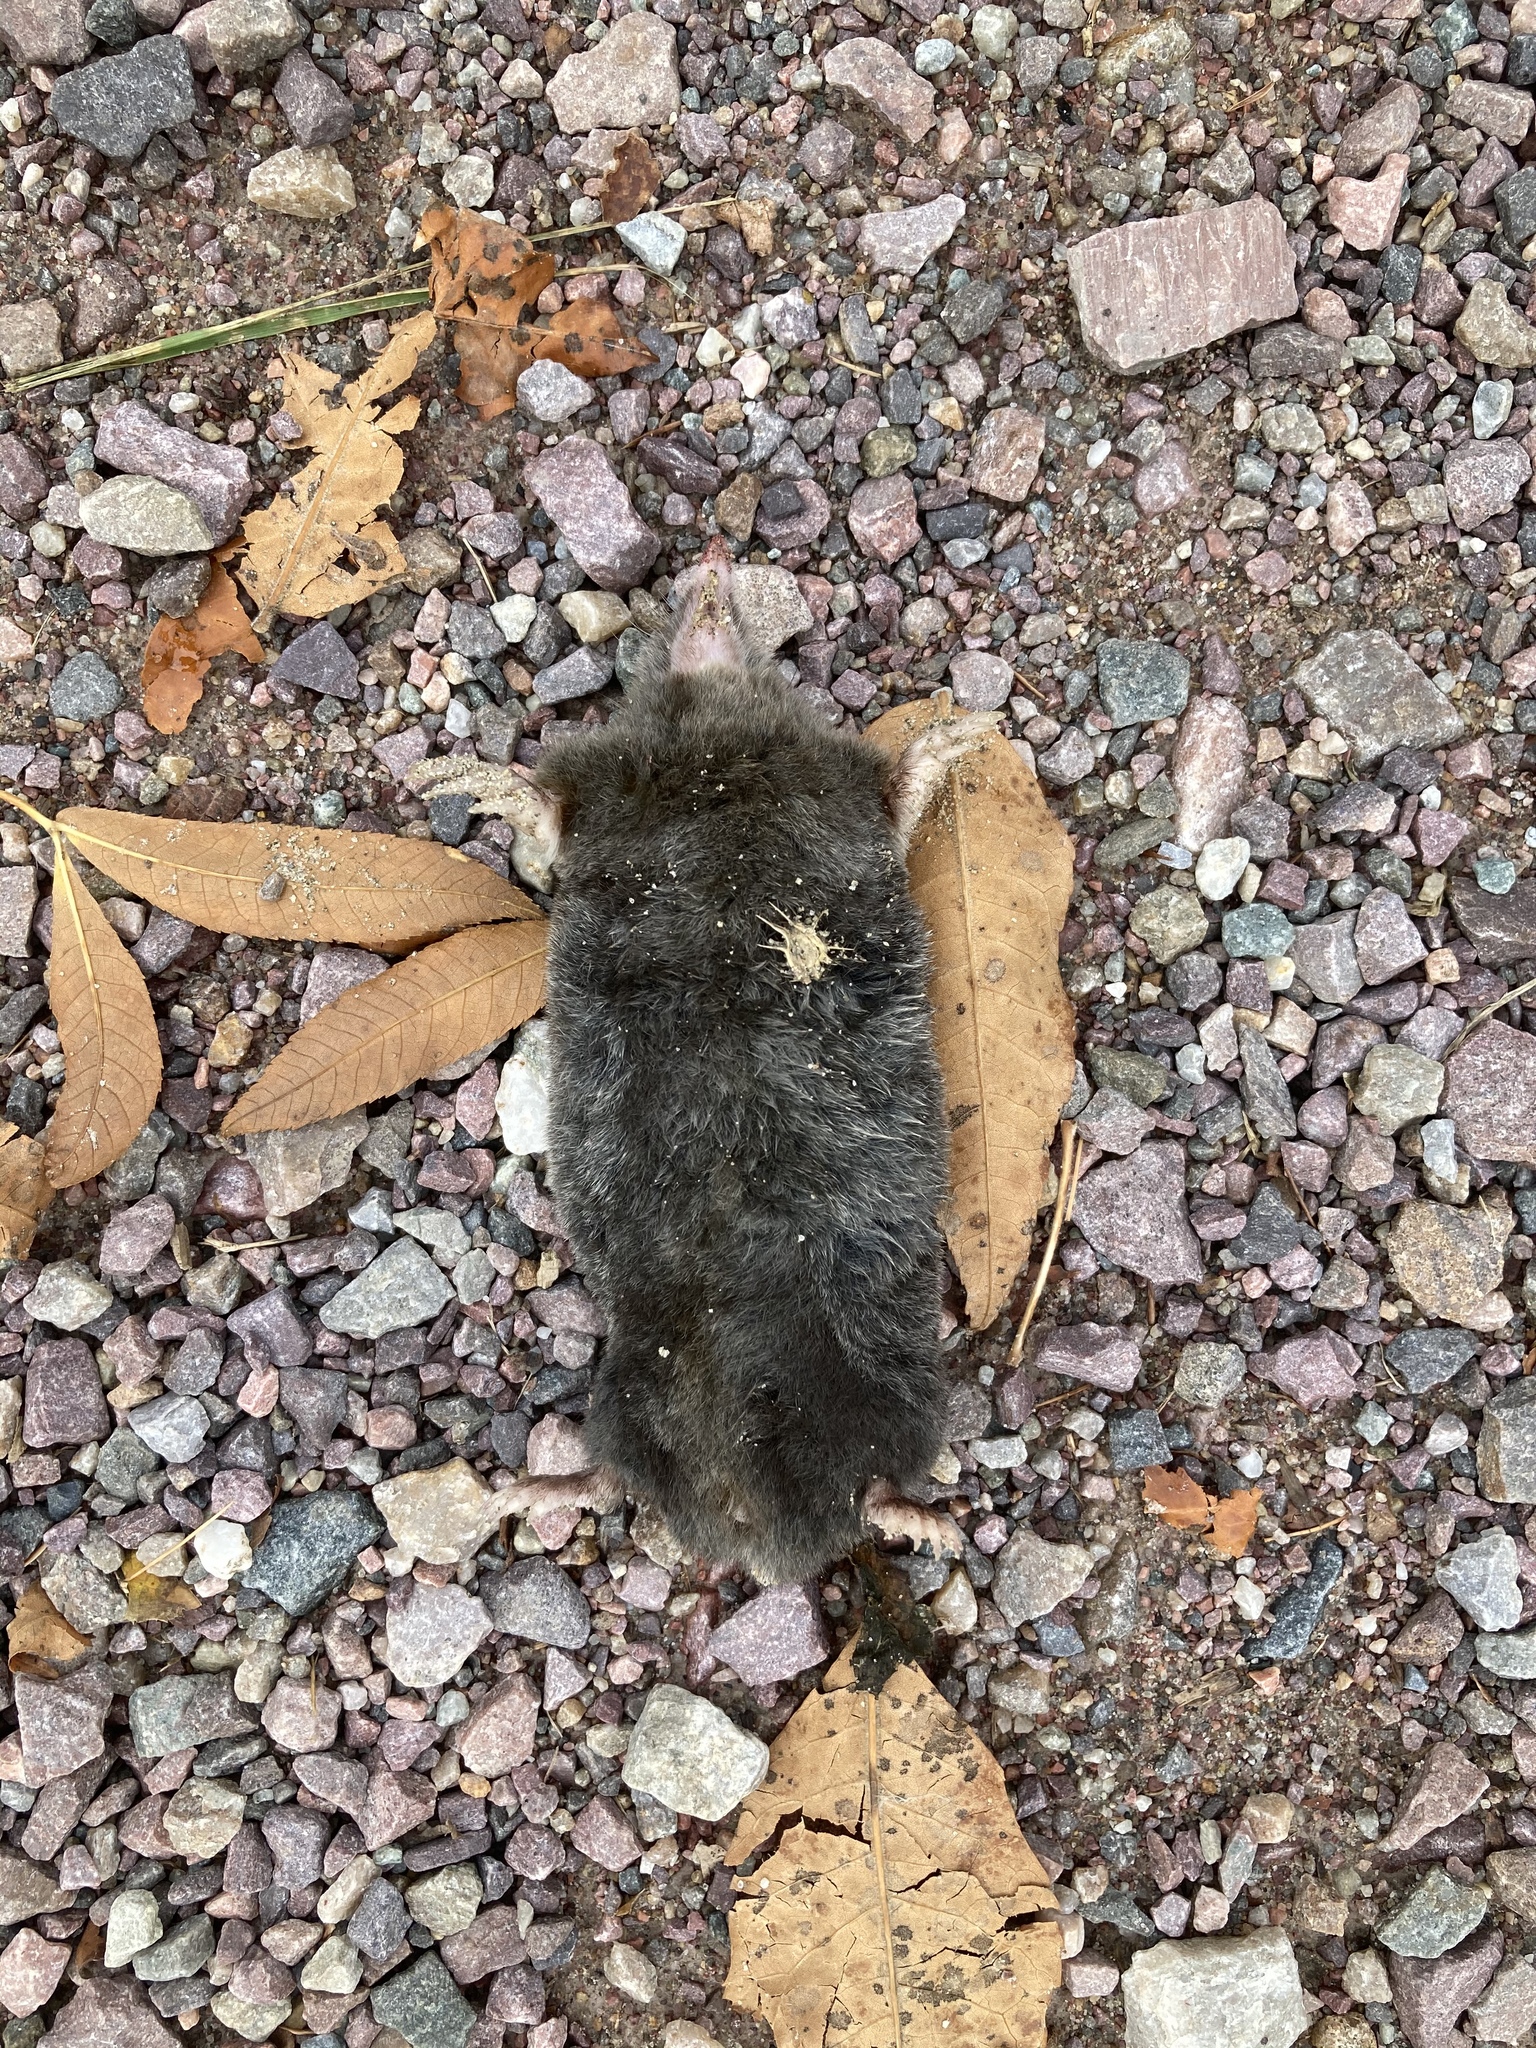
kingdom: Animalia
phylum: Chordata
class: Mammalia
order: Soricomorpha
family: Talpidae
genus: Parascalops
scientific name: Parascalops breweri
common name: Hairy-tailed mole
